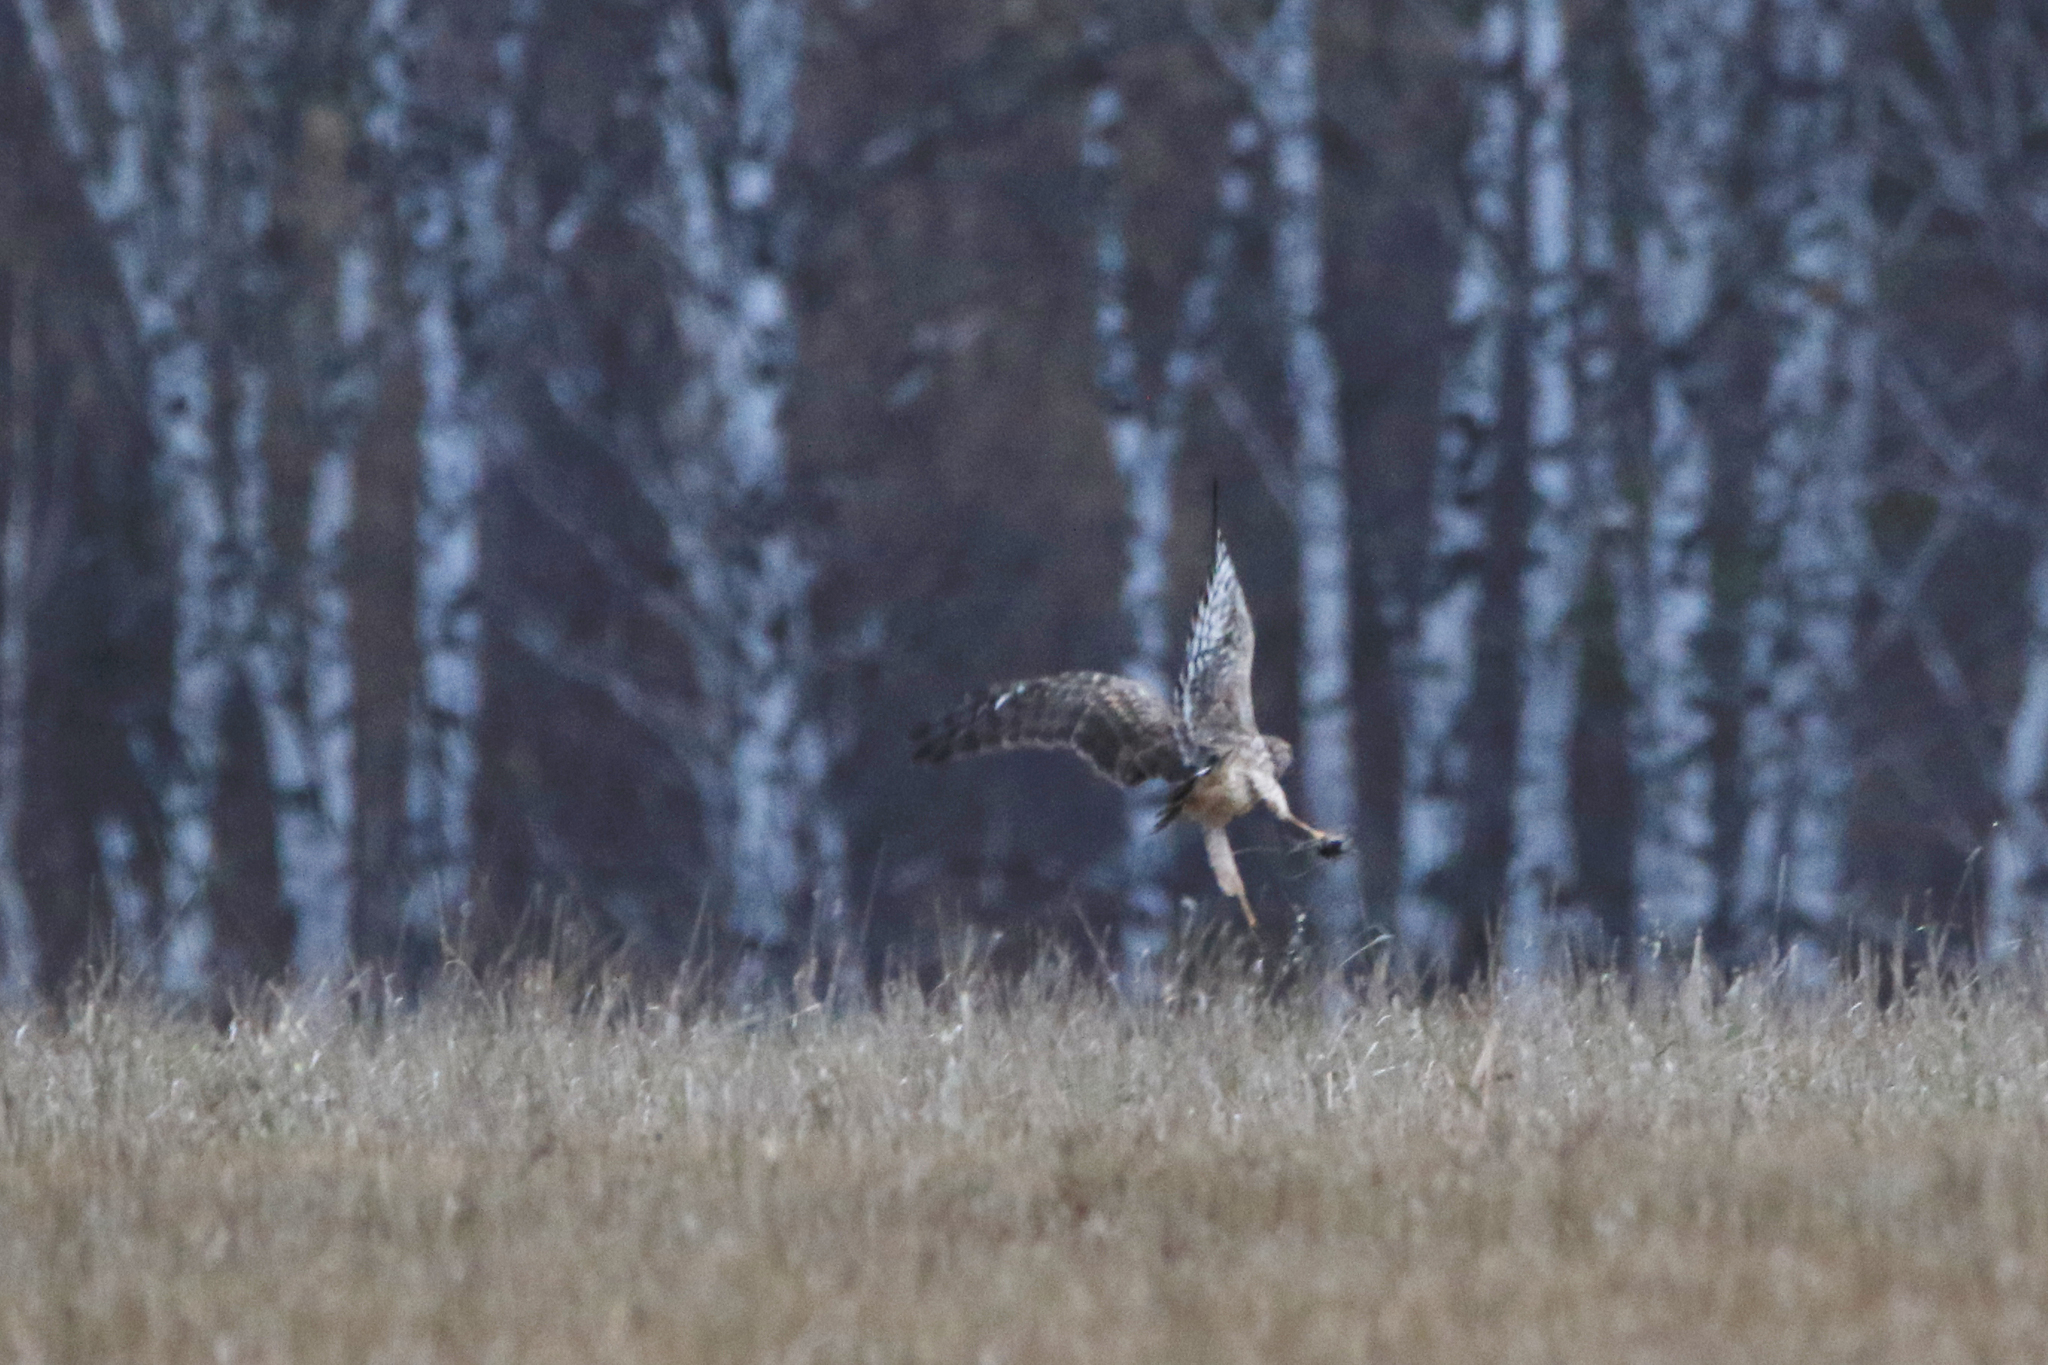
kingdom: Animalia
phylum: Chordata
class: Aves
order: Accipitriformes
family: Accipitridae
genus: Circus
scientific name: Circus cyaneus
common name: Hen harrier
